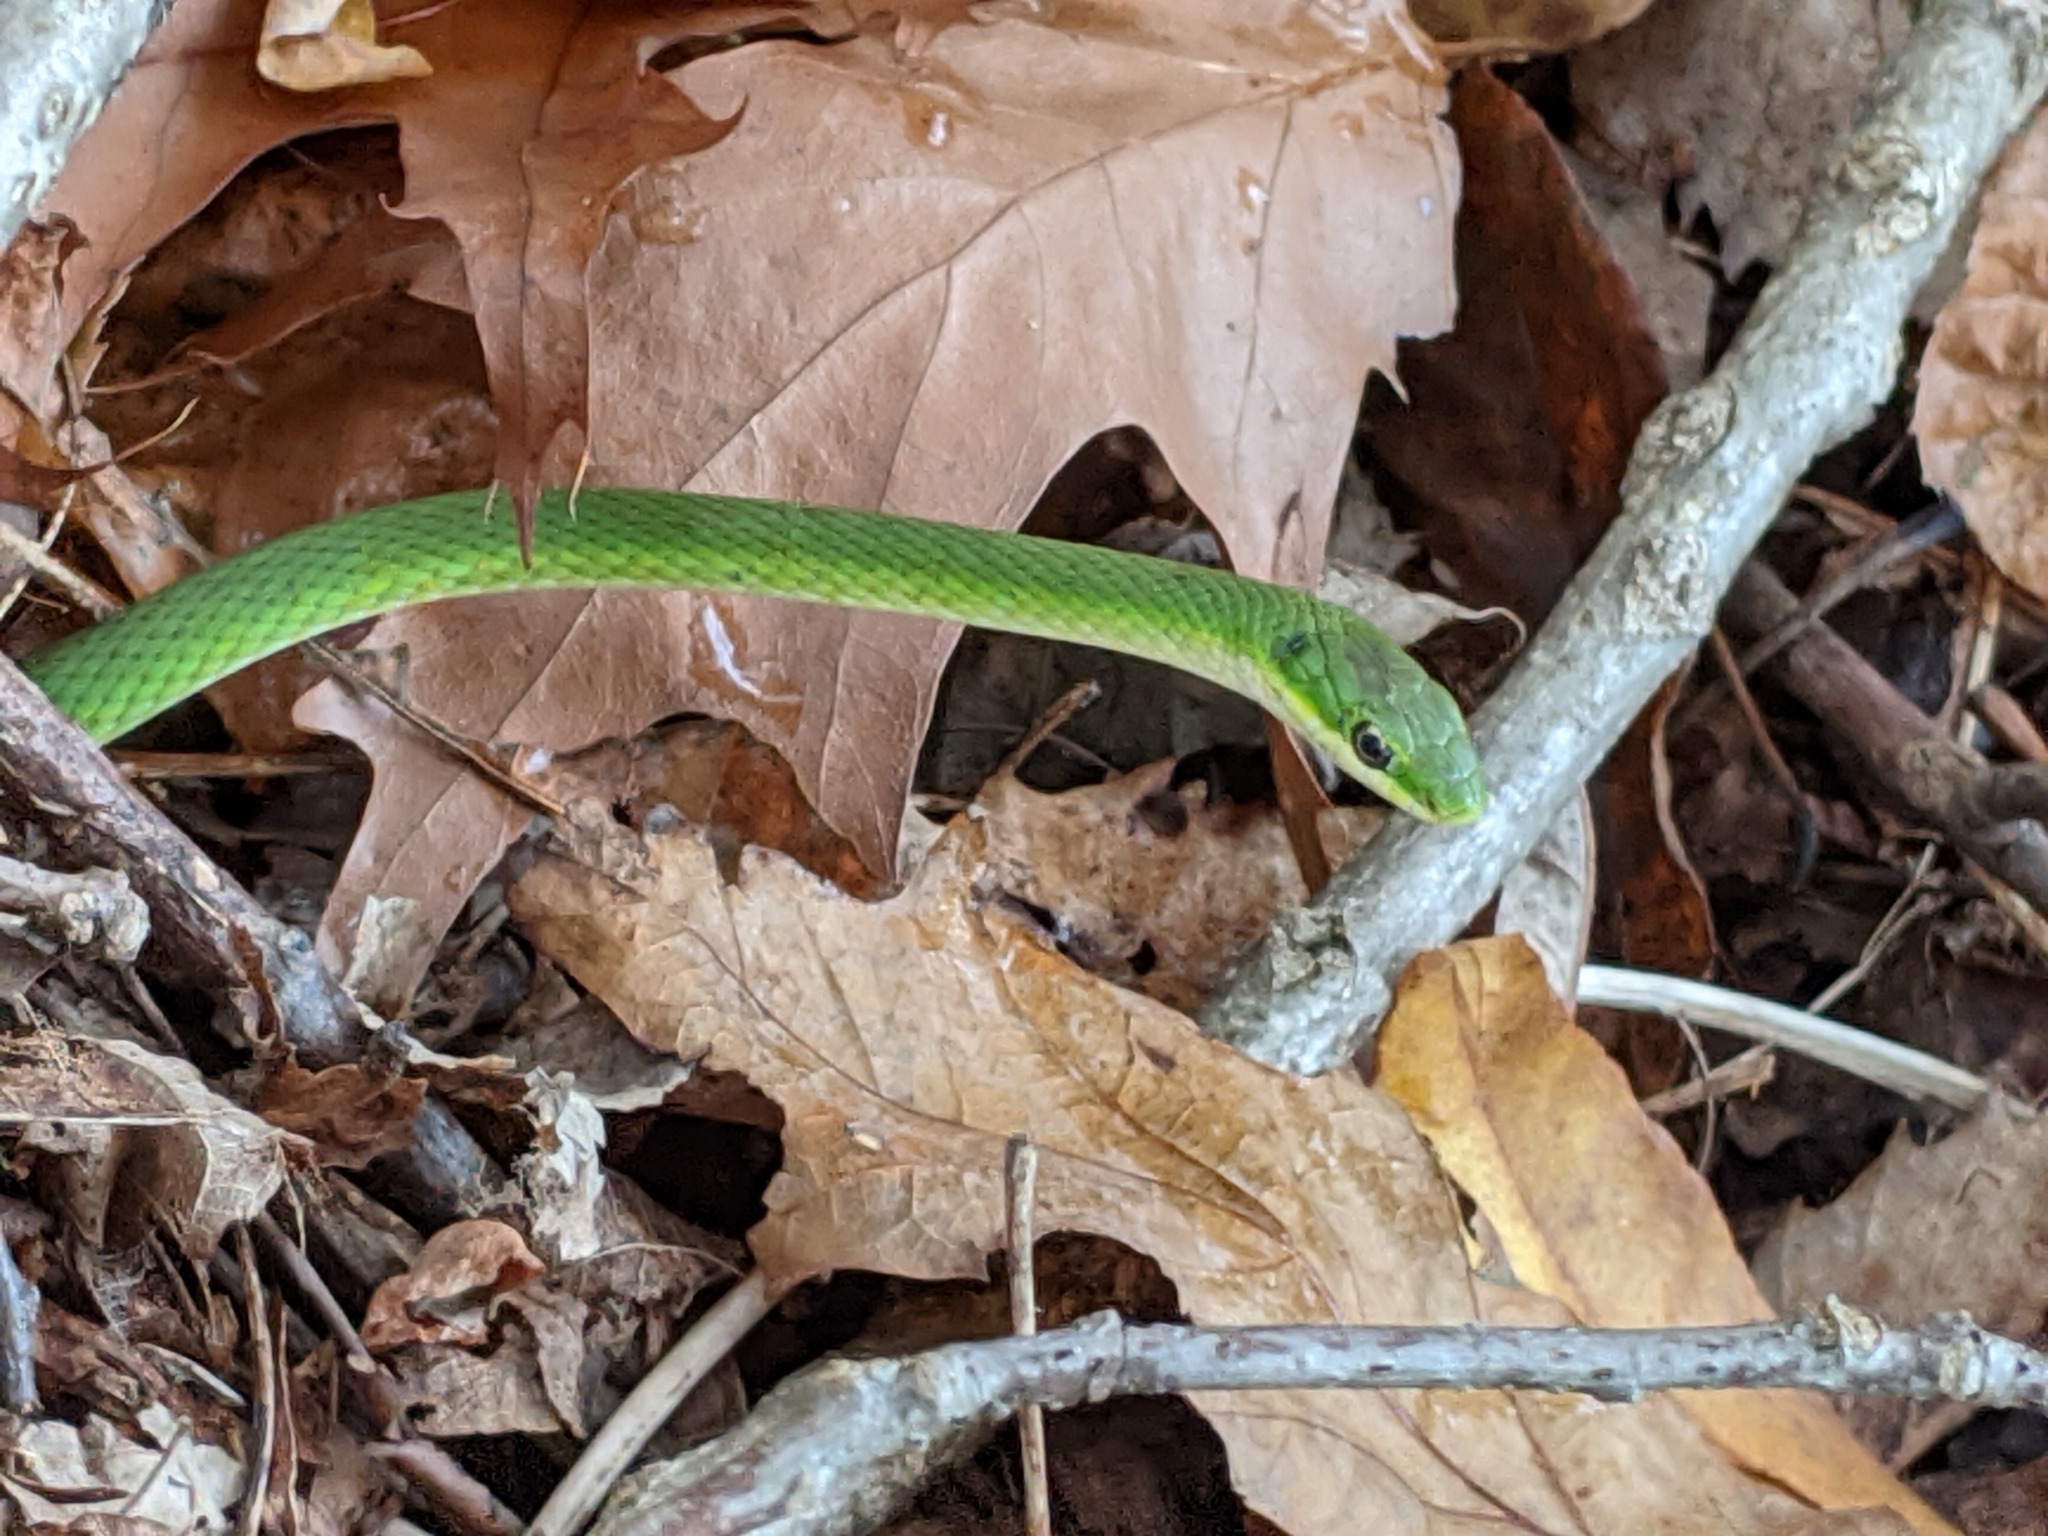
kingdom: Animalia
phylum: Chordata
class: Squamata
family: Colubridae
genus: Opheodrys
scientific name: Opheodrys aestivus
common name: Rough greensnake
